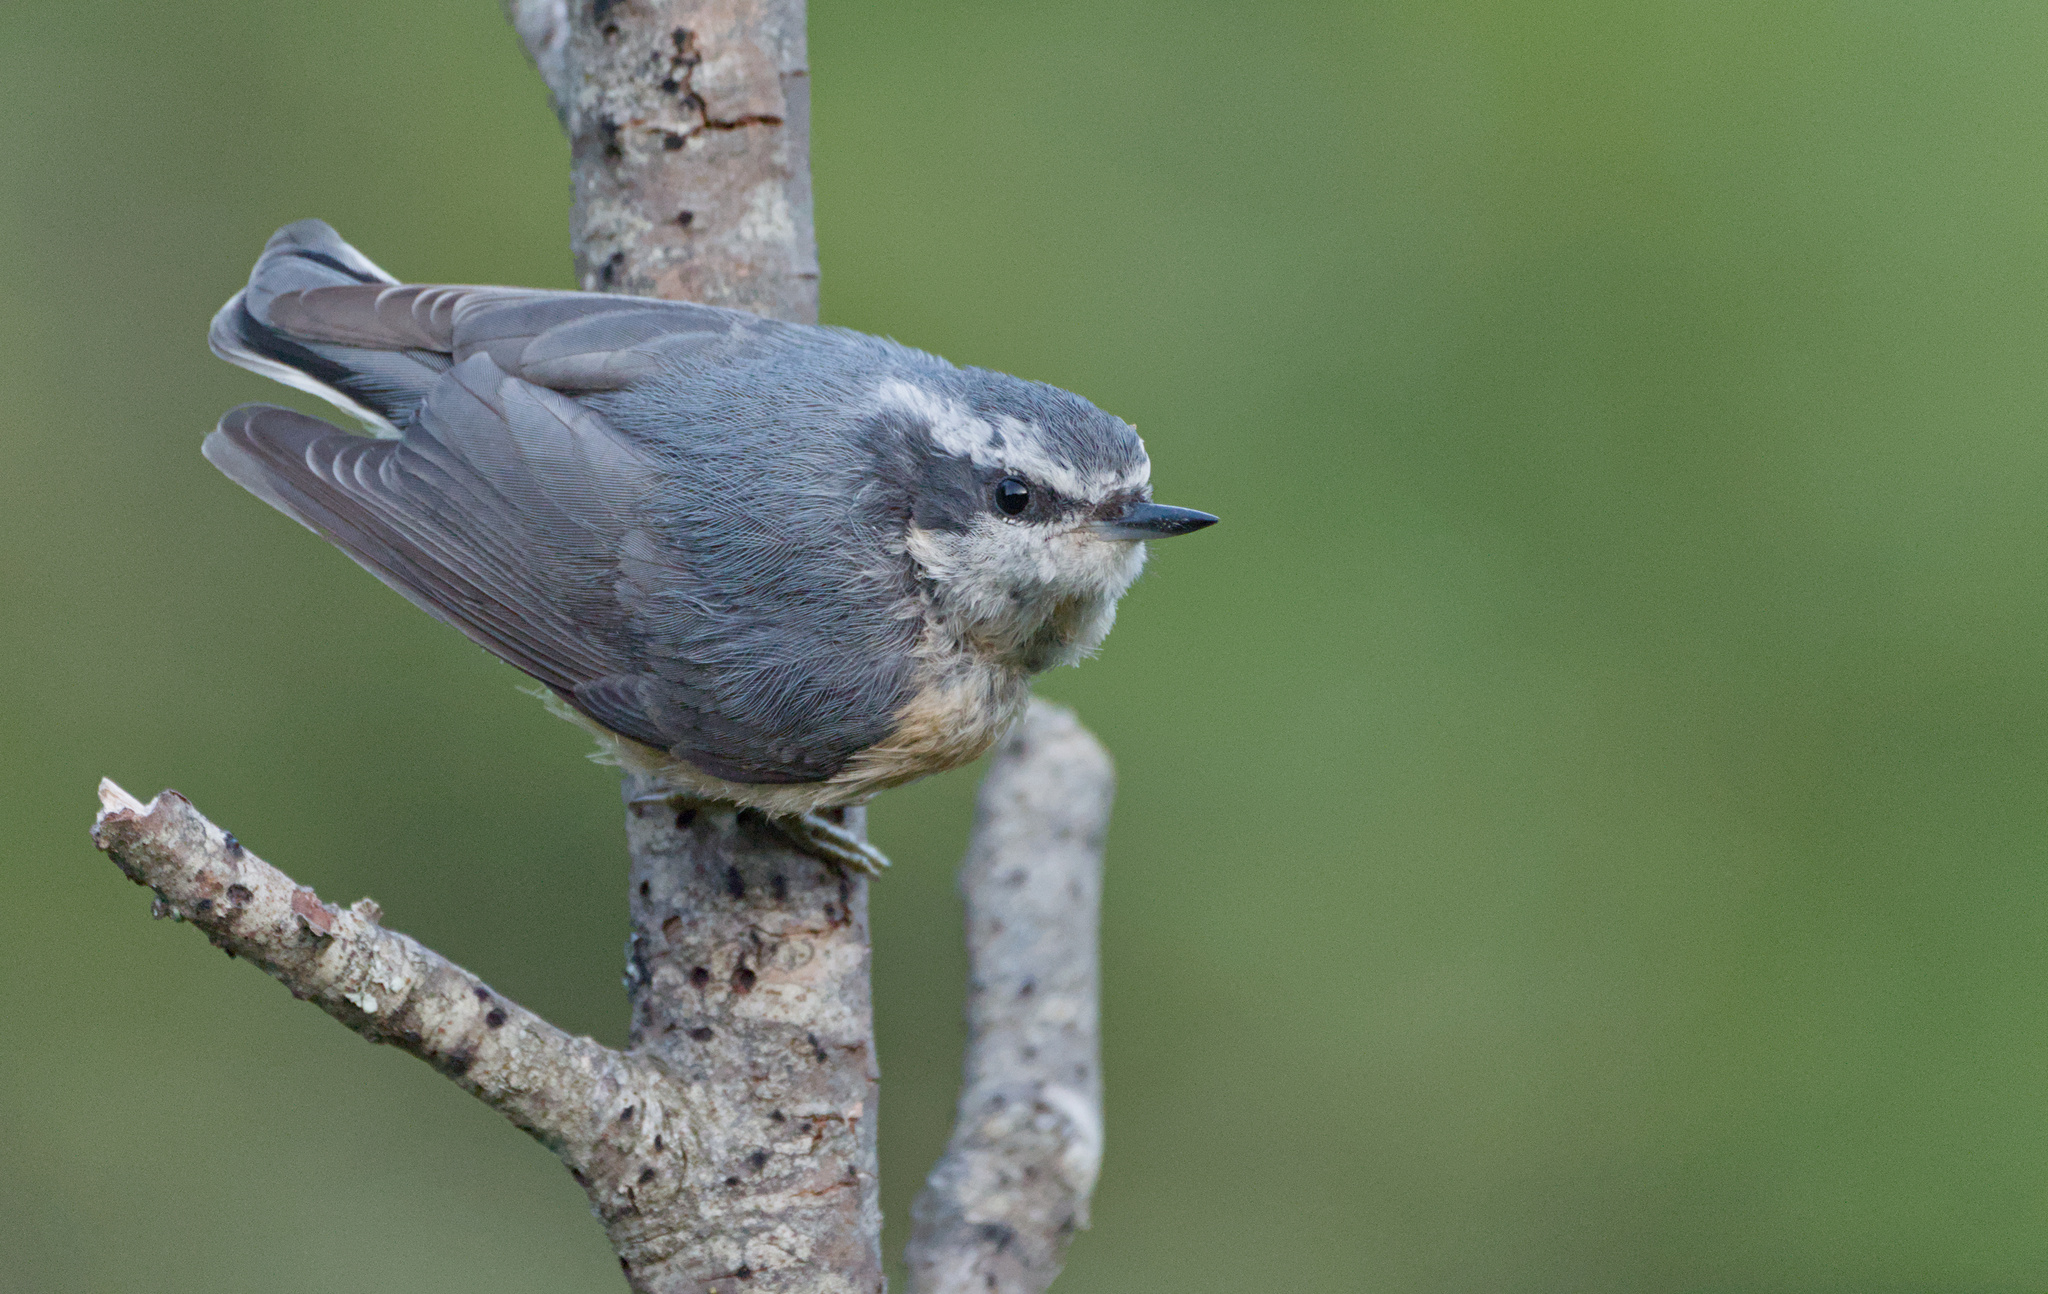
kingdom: Animalia
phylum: Chordata
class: Aves
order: Passeriformes
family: Sittidae
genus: Sitta
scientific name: Sitta canadensis
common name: Red-breasted nuthatch
